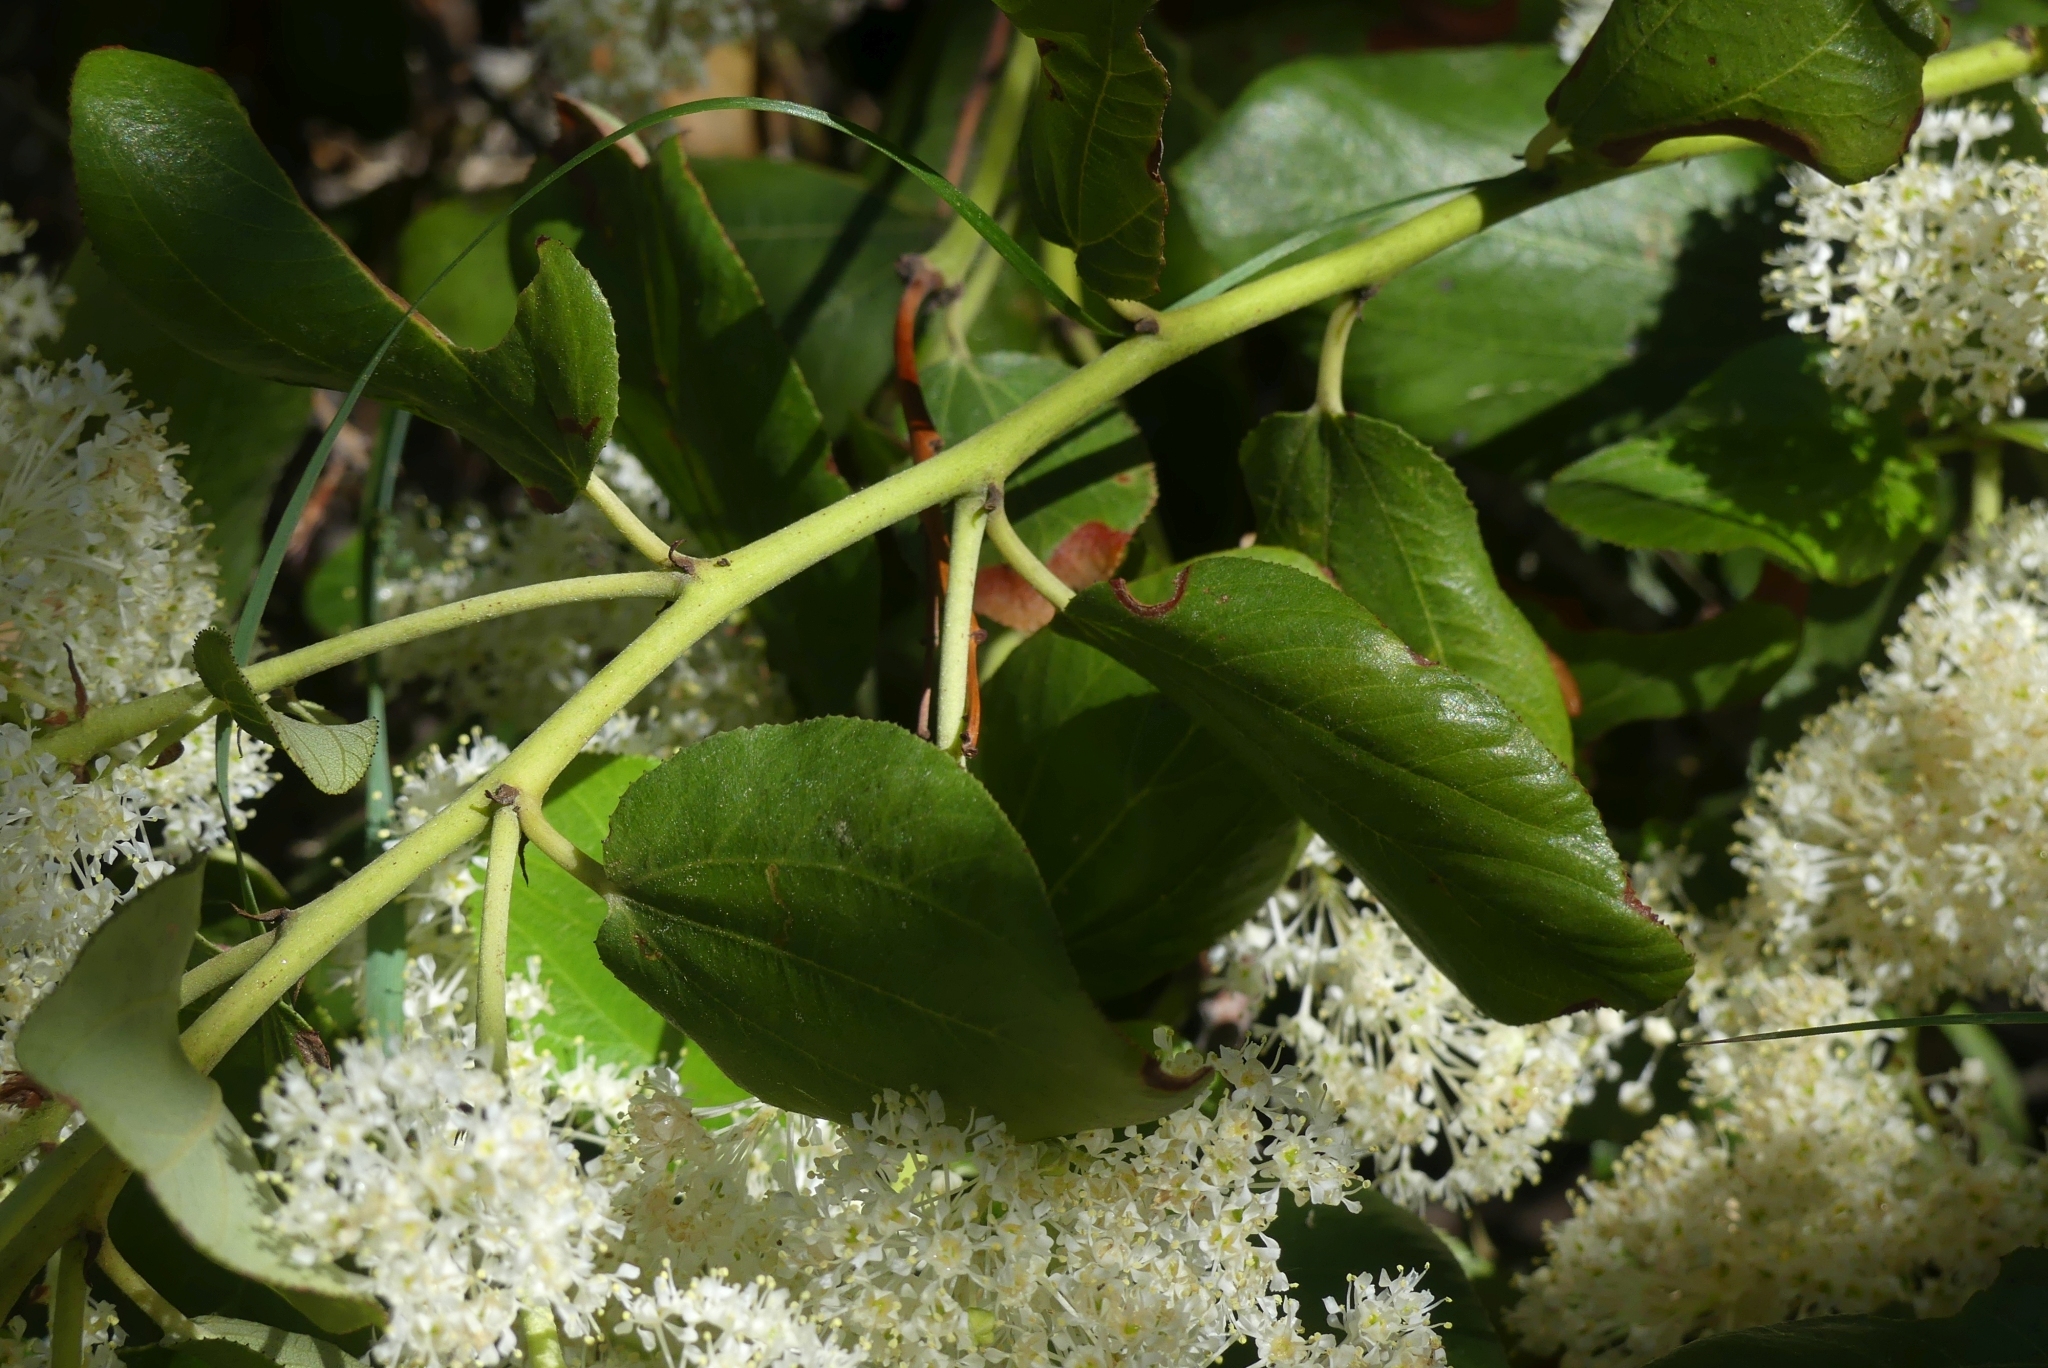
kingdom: Plantae
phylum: Tracheophyta
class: Magnoliopsida
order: Rosales
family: Rhamnaceae
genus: Ceanothus
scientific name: Ceanothus velutinus
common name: Snowbrush
